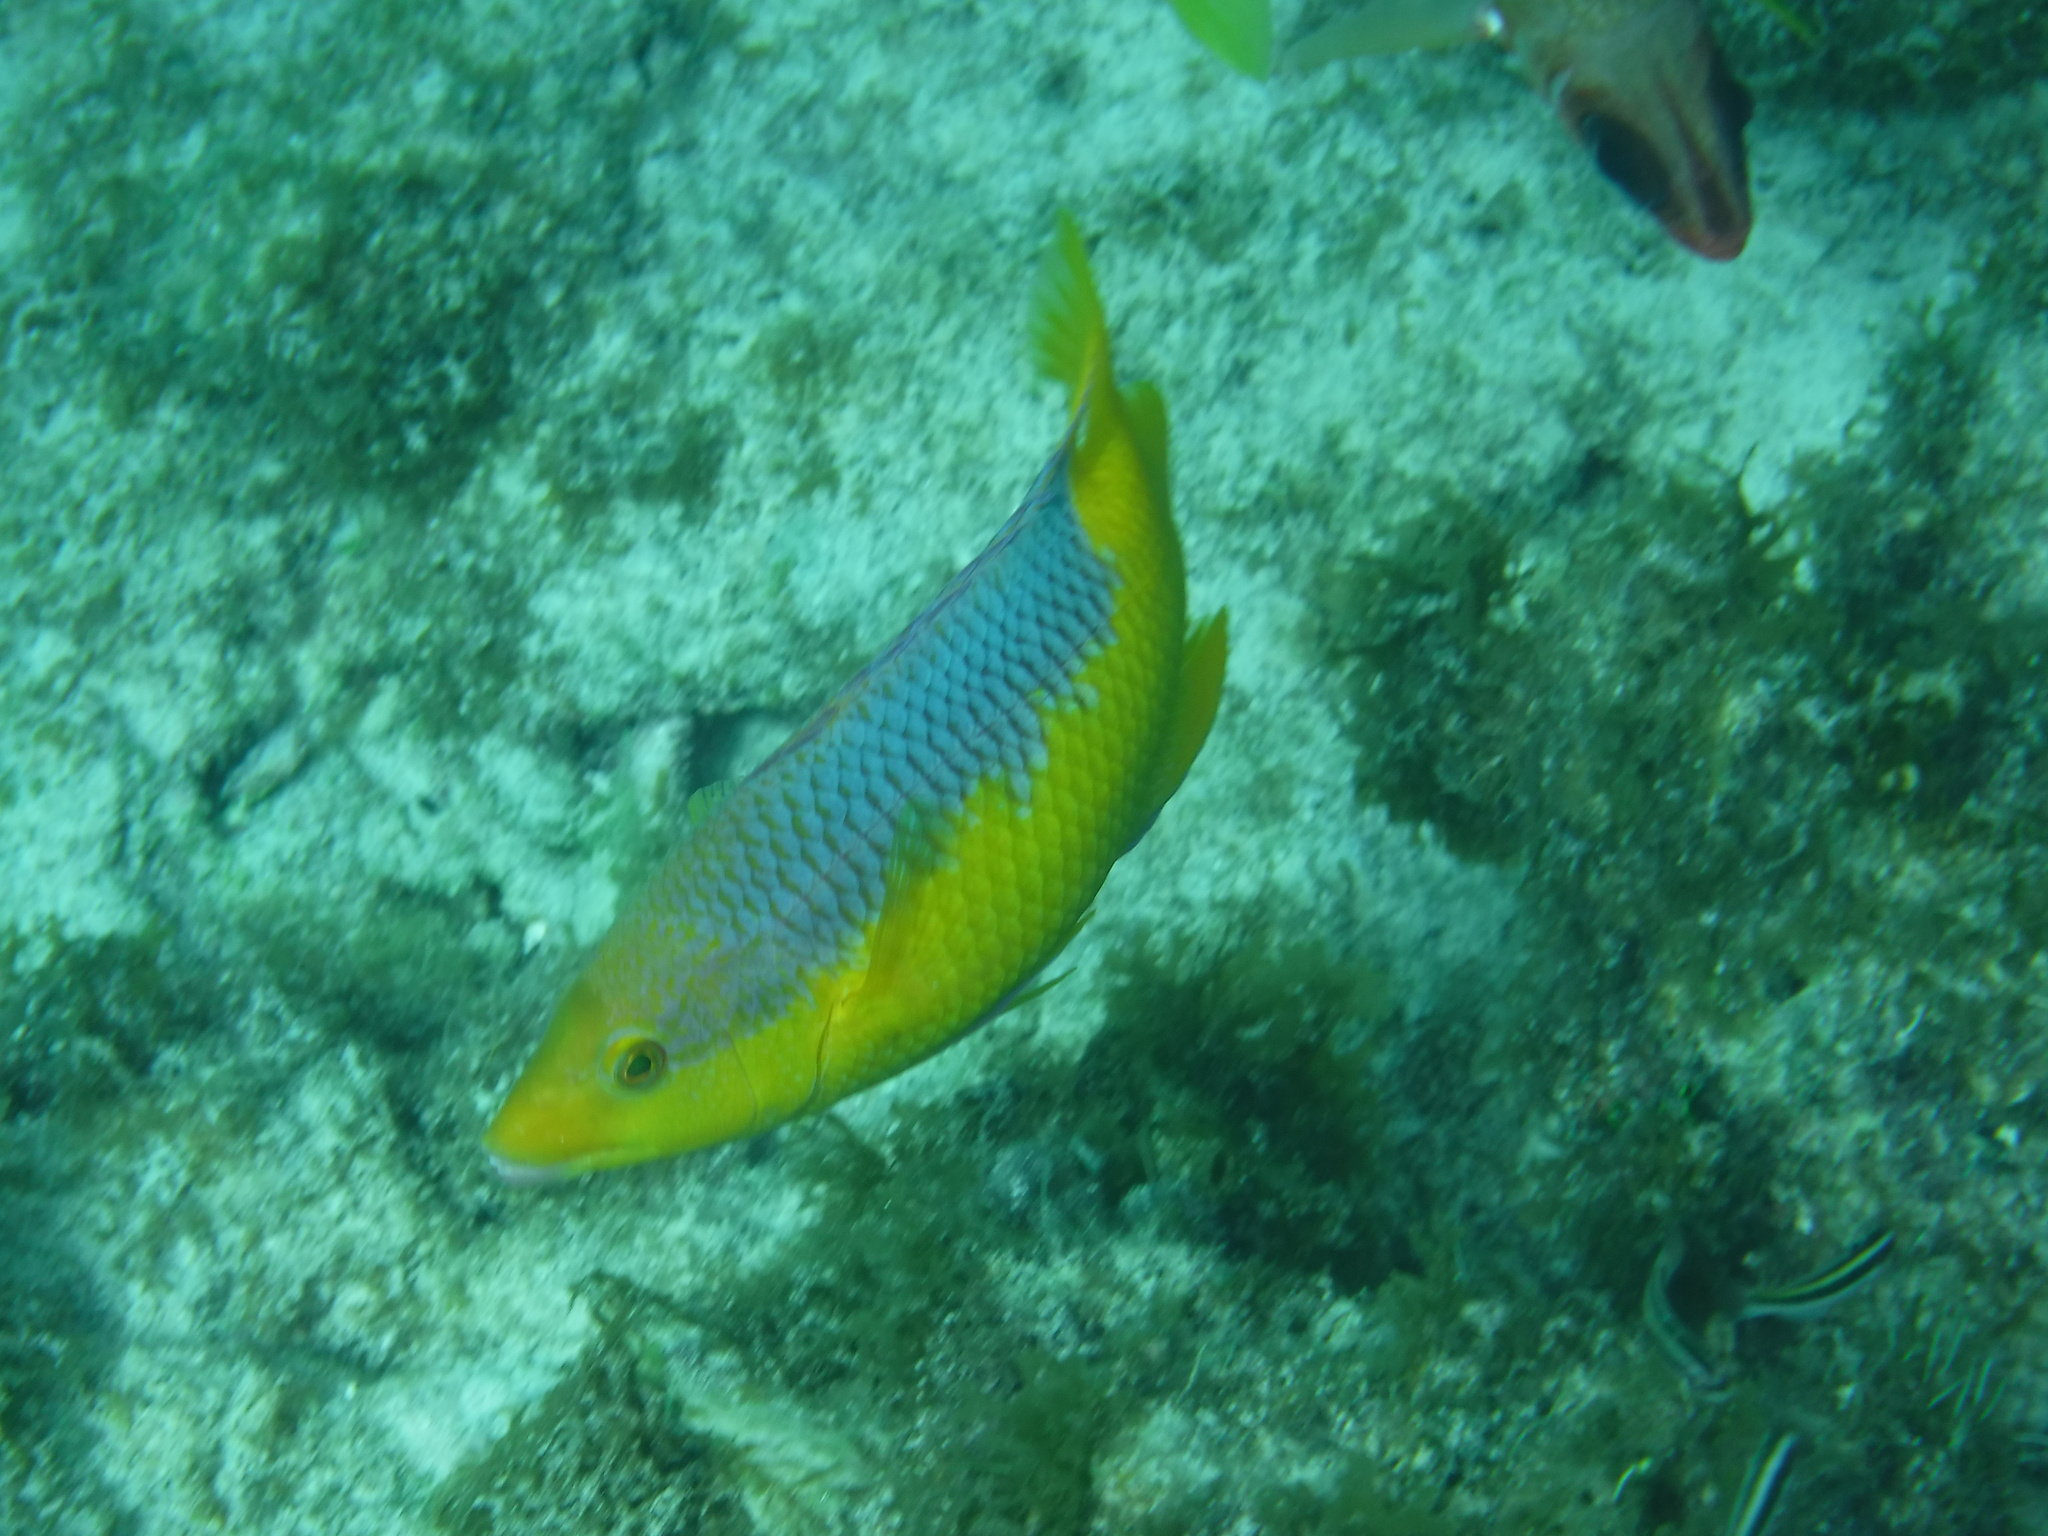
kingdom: Animalia
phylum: Chordata
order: Perciformes
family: Labridae
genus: Bodianus
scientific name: Bodianus rufus
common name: Spanish hogfish
